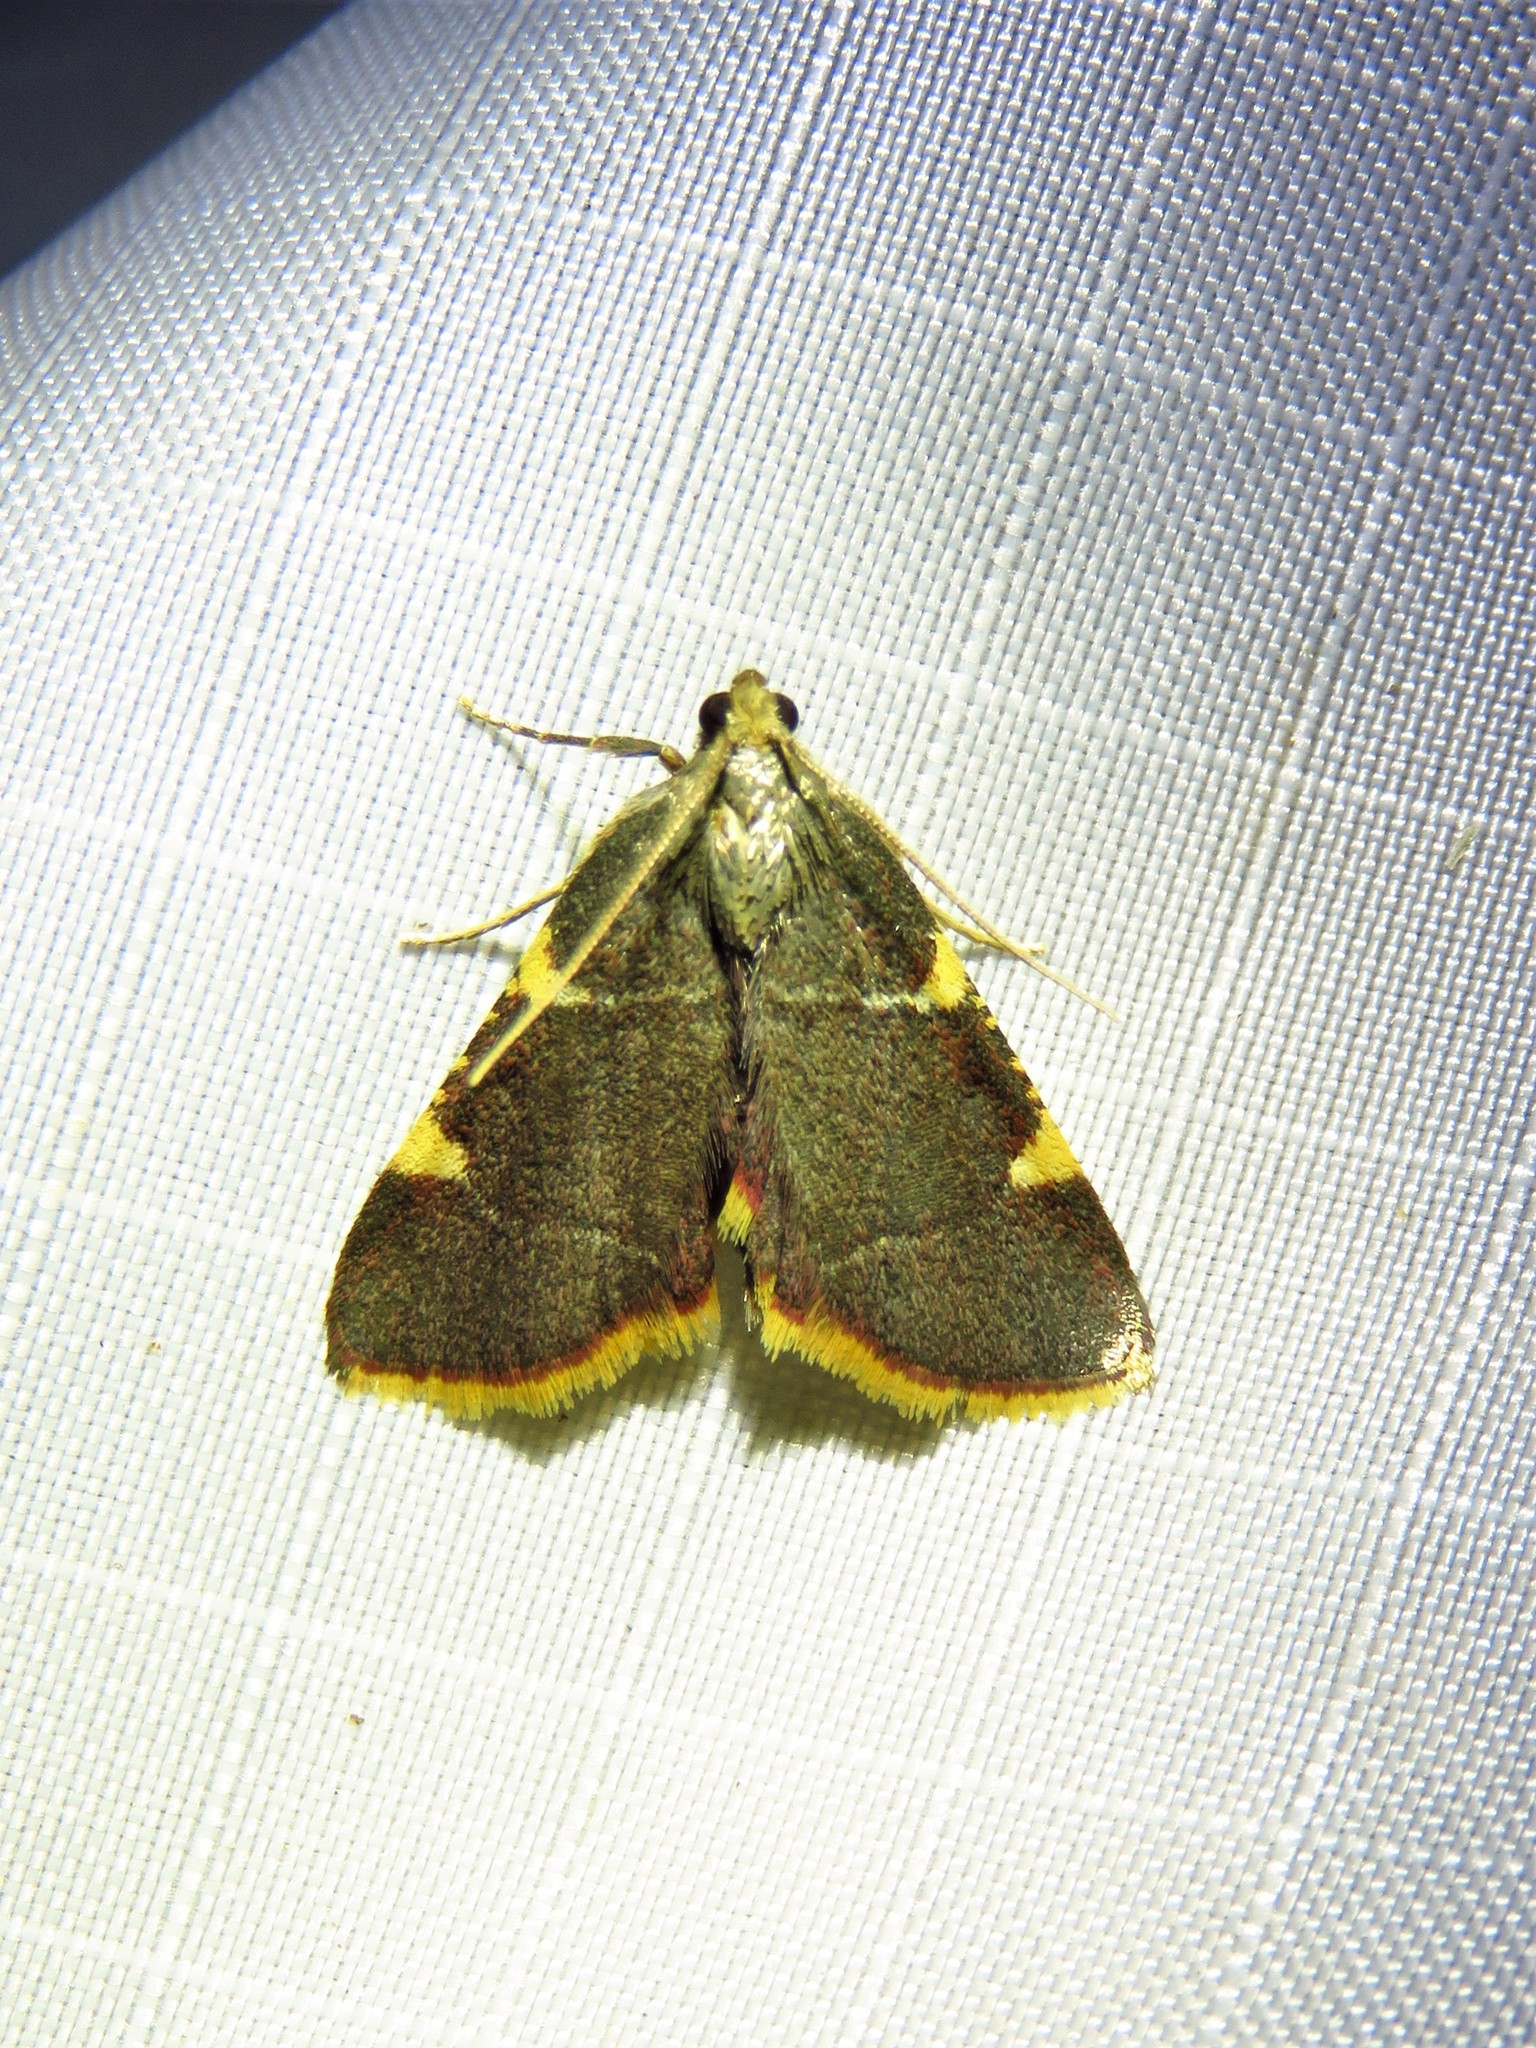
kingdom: Animalia
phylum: Arthropoda
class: Insecta
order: Lepidoptera
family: Pyralidae
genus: Hypsopygia
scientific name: Hypsopygia olinalis
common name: Yellow-fringed dolichomia moth
